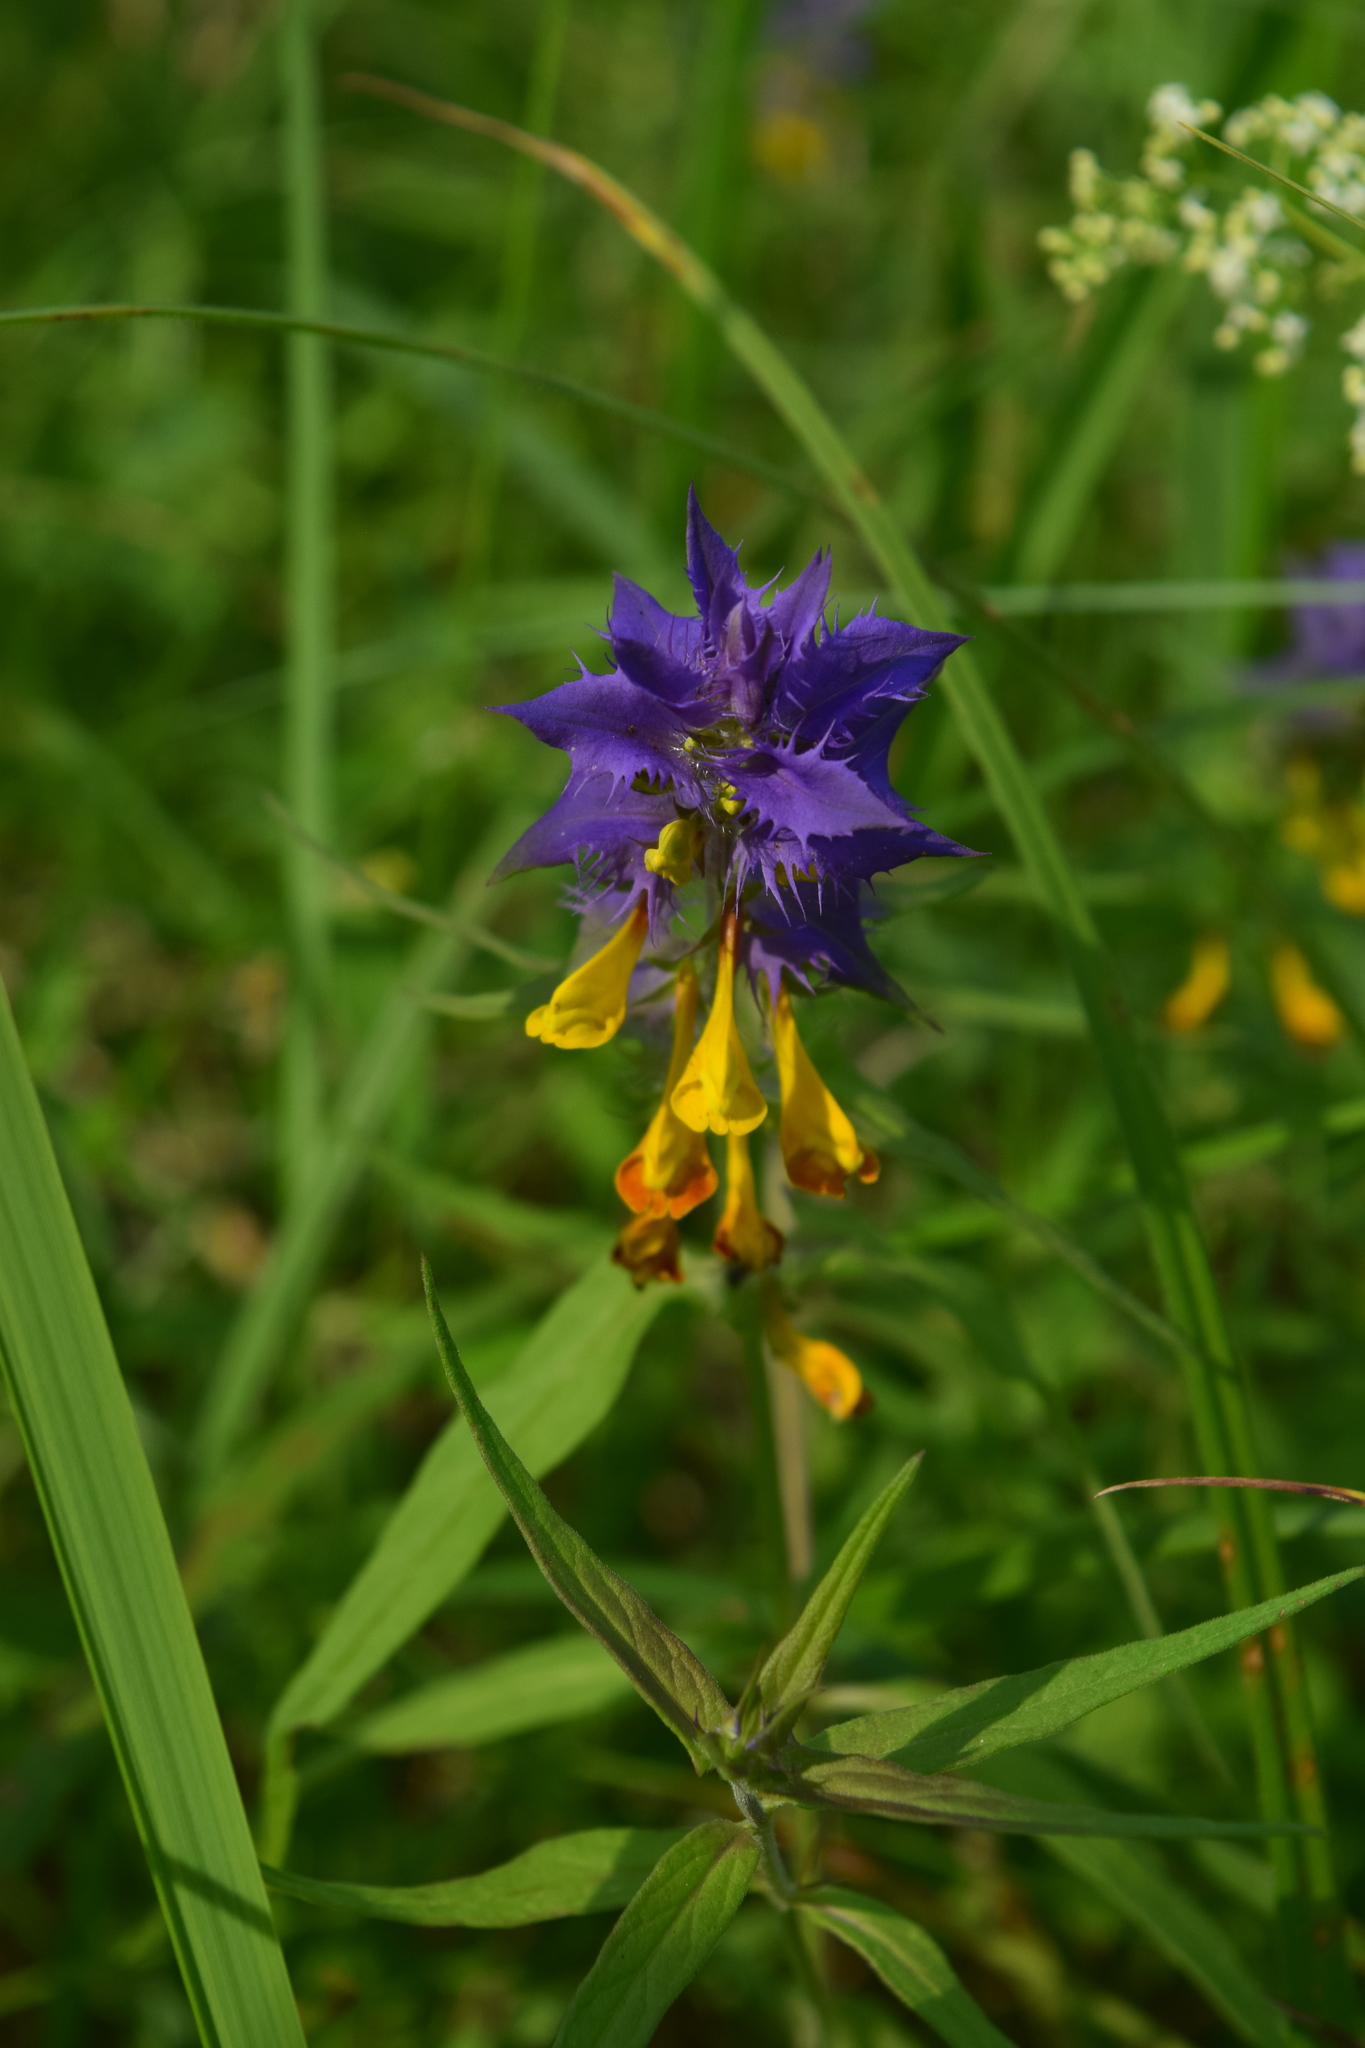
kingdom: Plantae
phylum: Tracheophyta
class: Magnoliopsida
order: Lamiales
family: Orobanchaceae
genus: Melampyrum
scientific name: Melampyrum nemorosum
